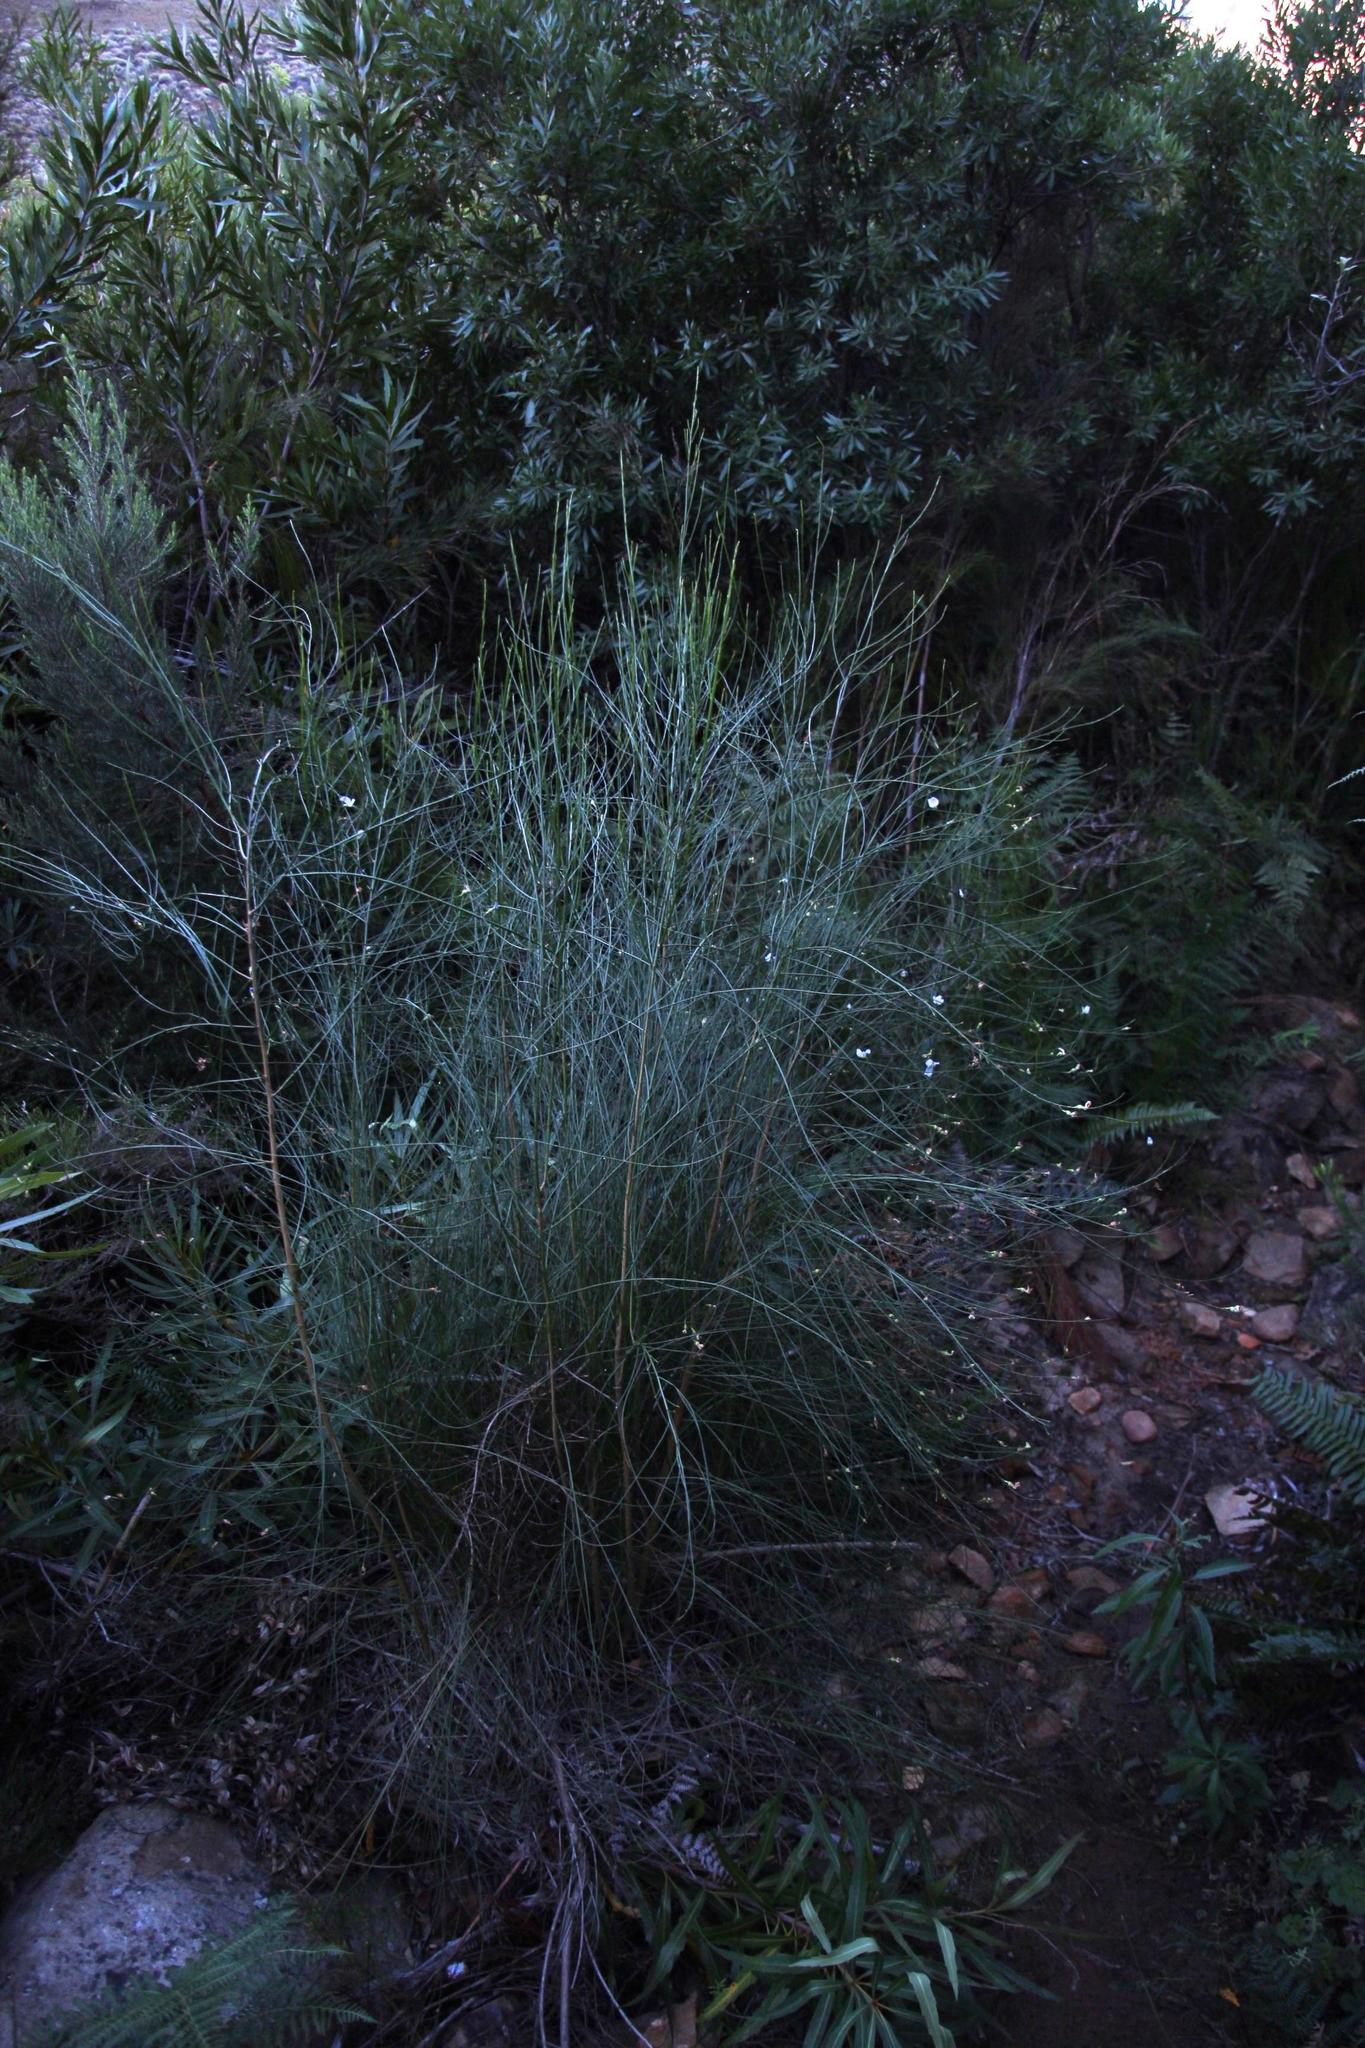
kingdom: Plantae
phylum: Tracheophyta
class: Magnoliopsida
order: Fabales
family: Fabaceae
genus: Psoralea
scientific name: Psoralea ramulosa
